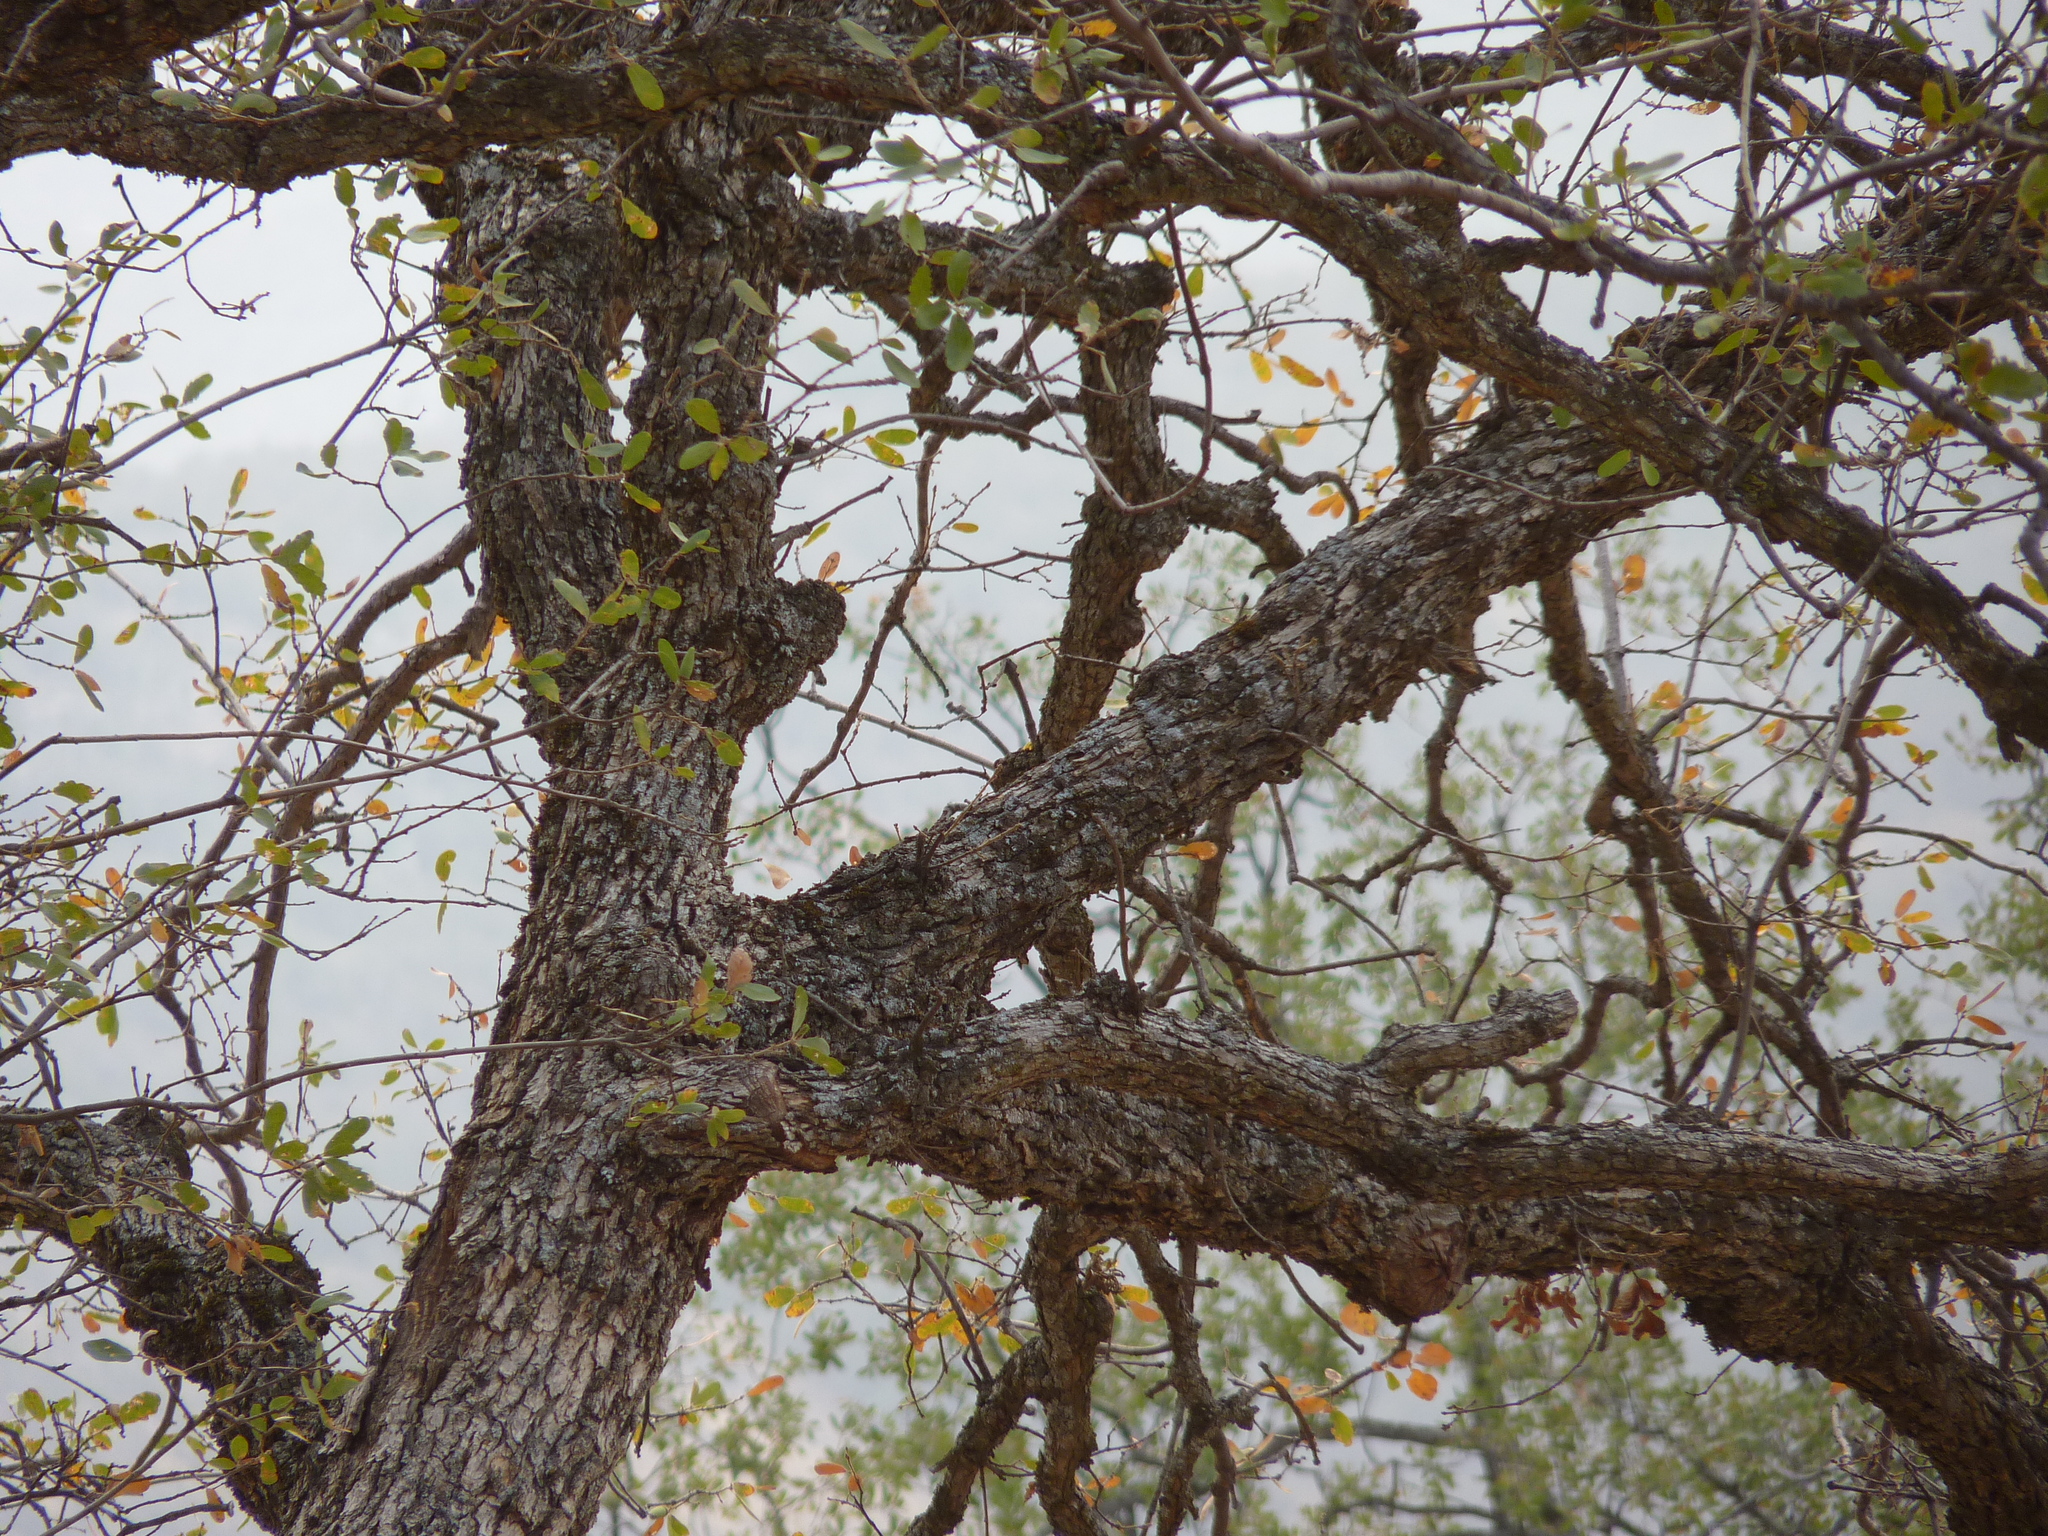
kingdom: Plantae
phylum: Tracheophyta
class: Magnoliopsida
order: Fagales
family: Fagaceae
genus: Quercus
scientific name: Quercus douglasii
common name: Blue oak
